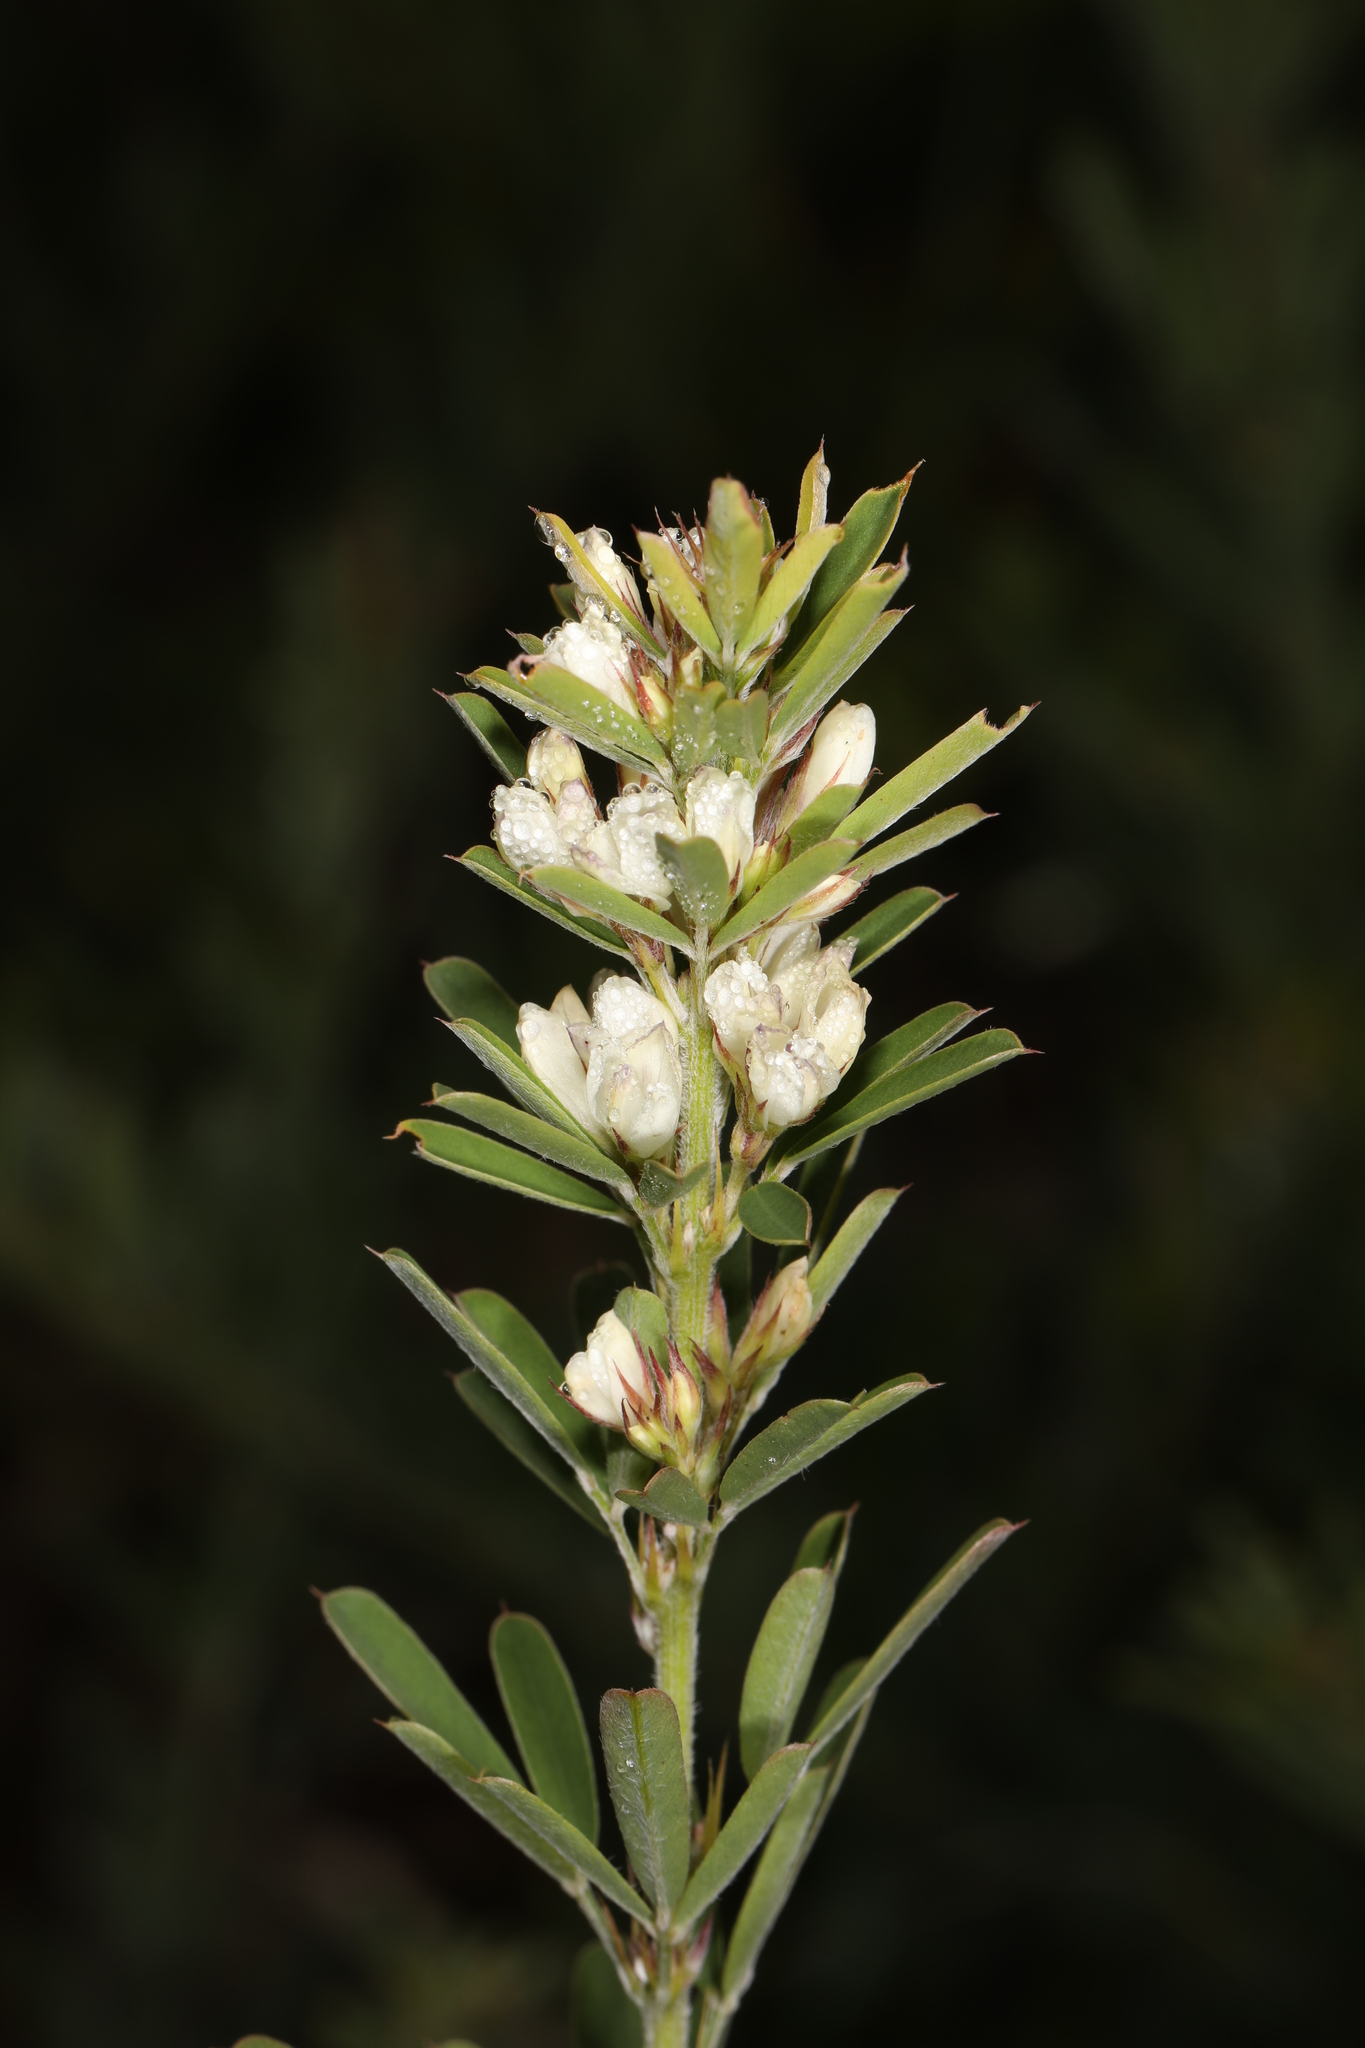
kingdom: Plantae
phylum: Tracheophyta
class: Magnoliopsida
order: Fabales
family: Fabaceae
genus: Lespedeza
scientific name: Lespedeza cuneata
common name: Chinese bush-clover
